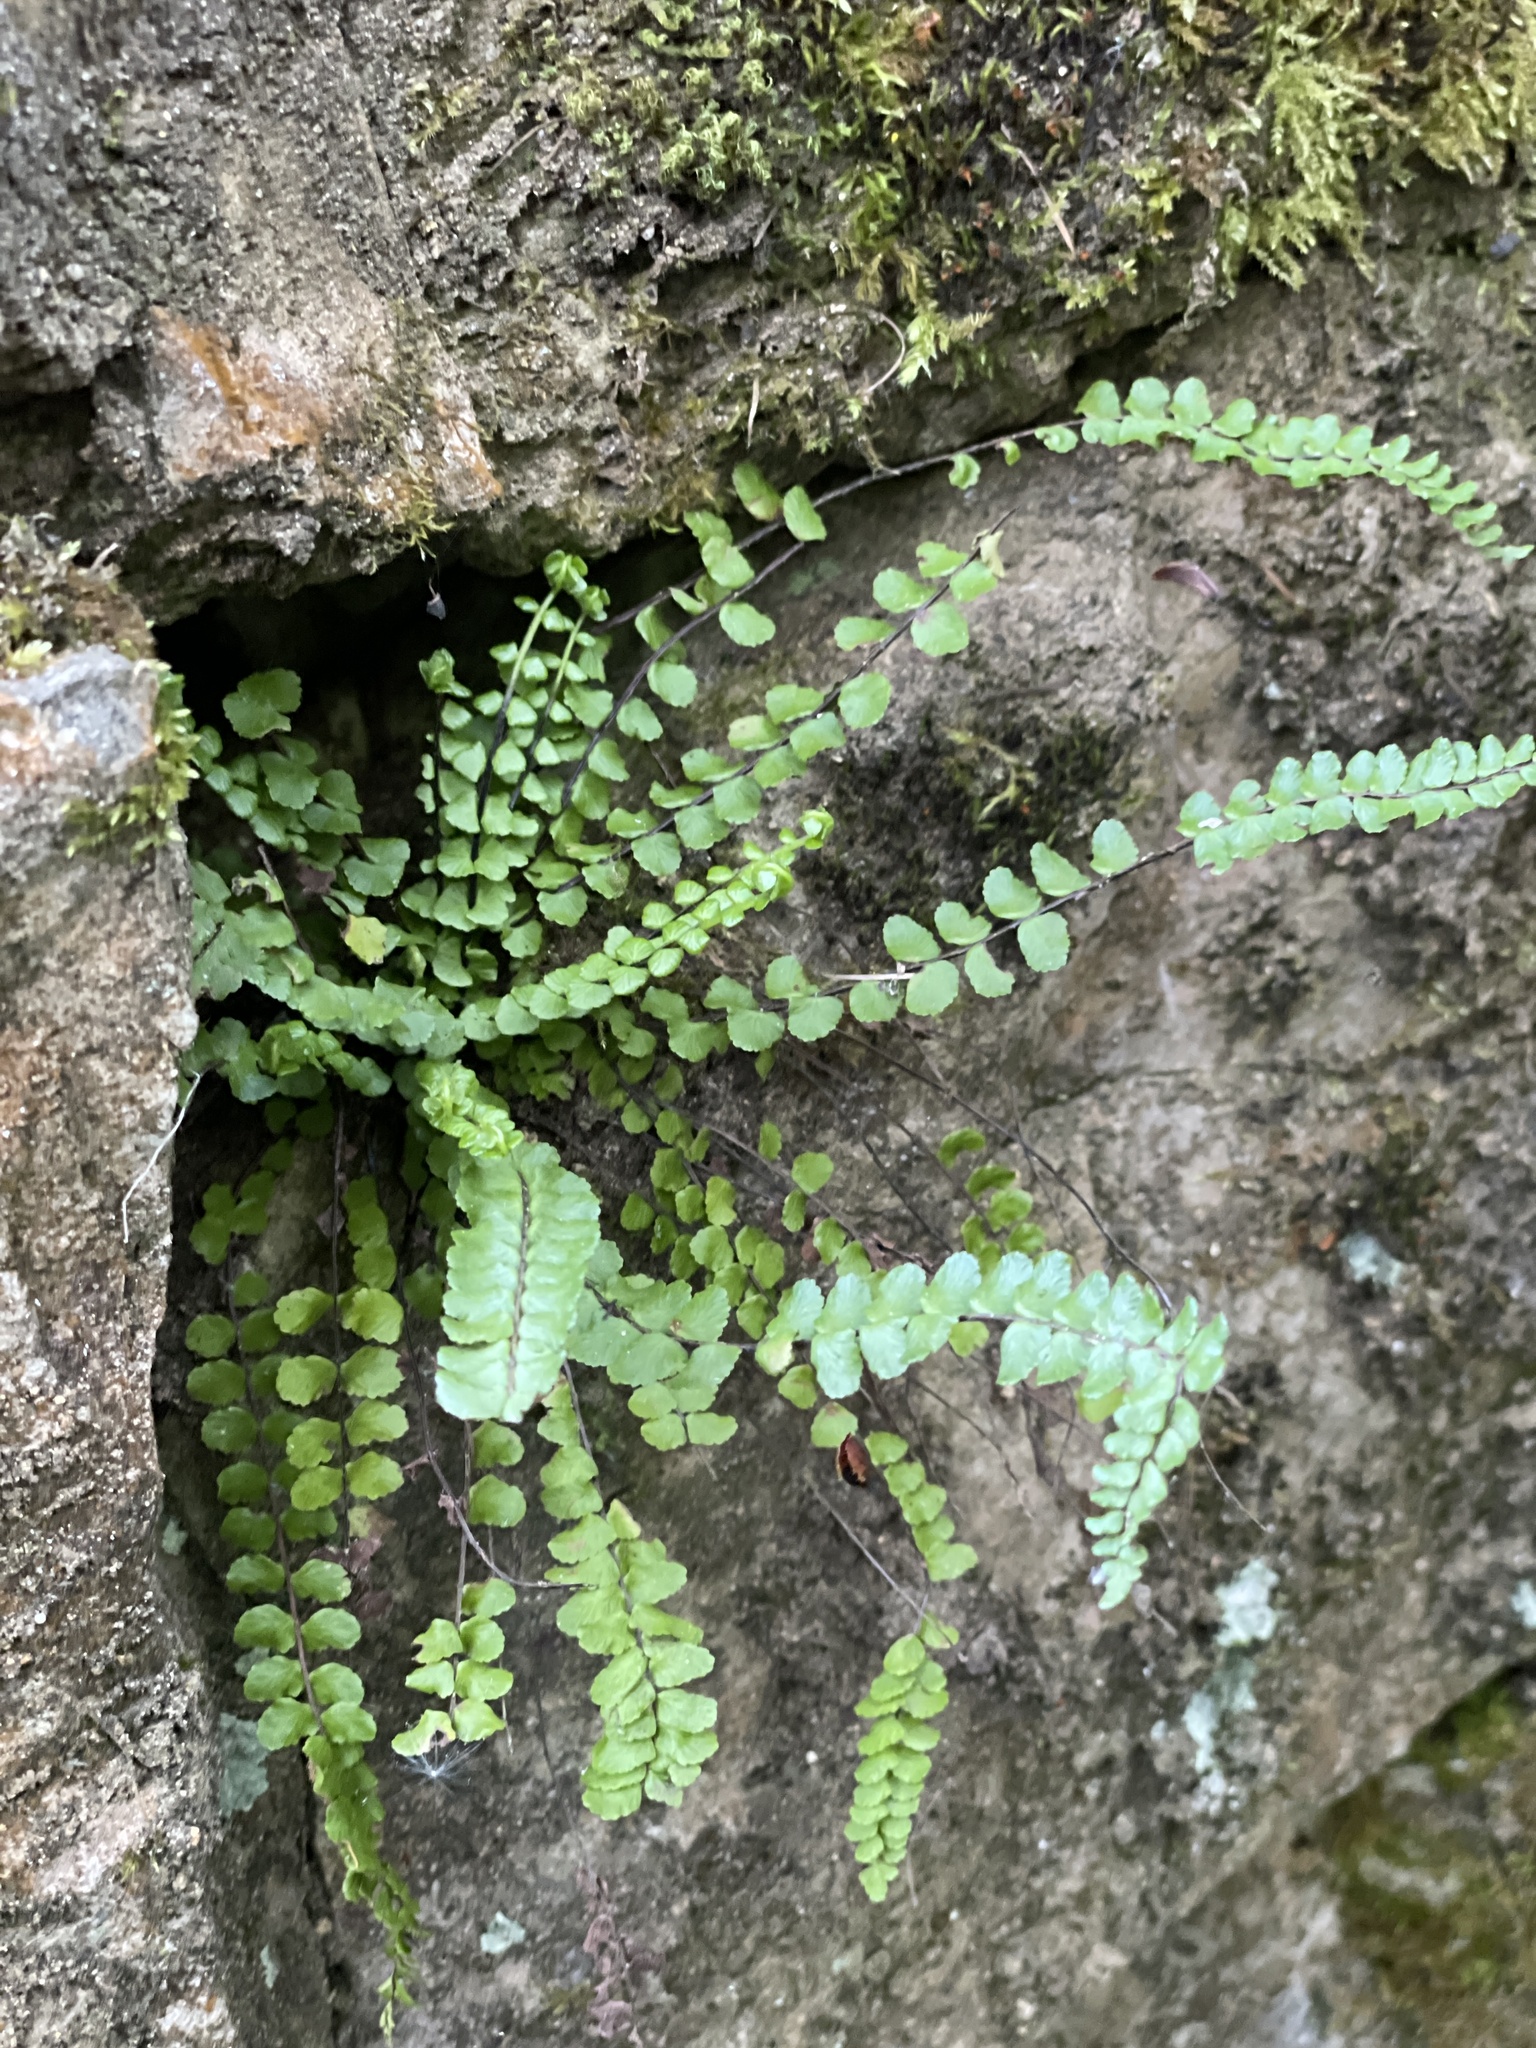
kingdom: Plantae
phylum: Tracheophyta
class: Polypodiopsida
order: Polypodiales
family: Aspleniaceae
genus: Asplenium
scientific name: Asplenium trichomanes
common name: Maidenhair spleenwort
